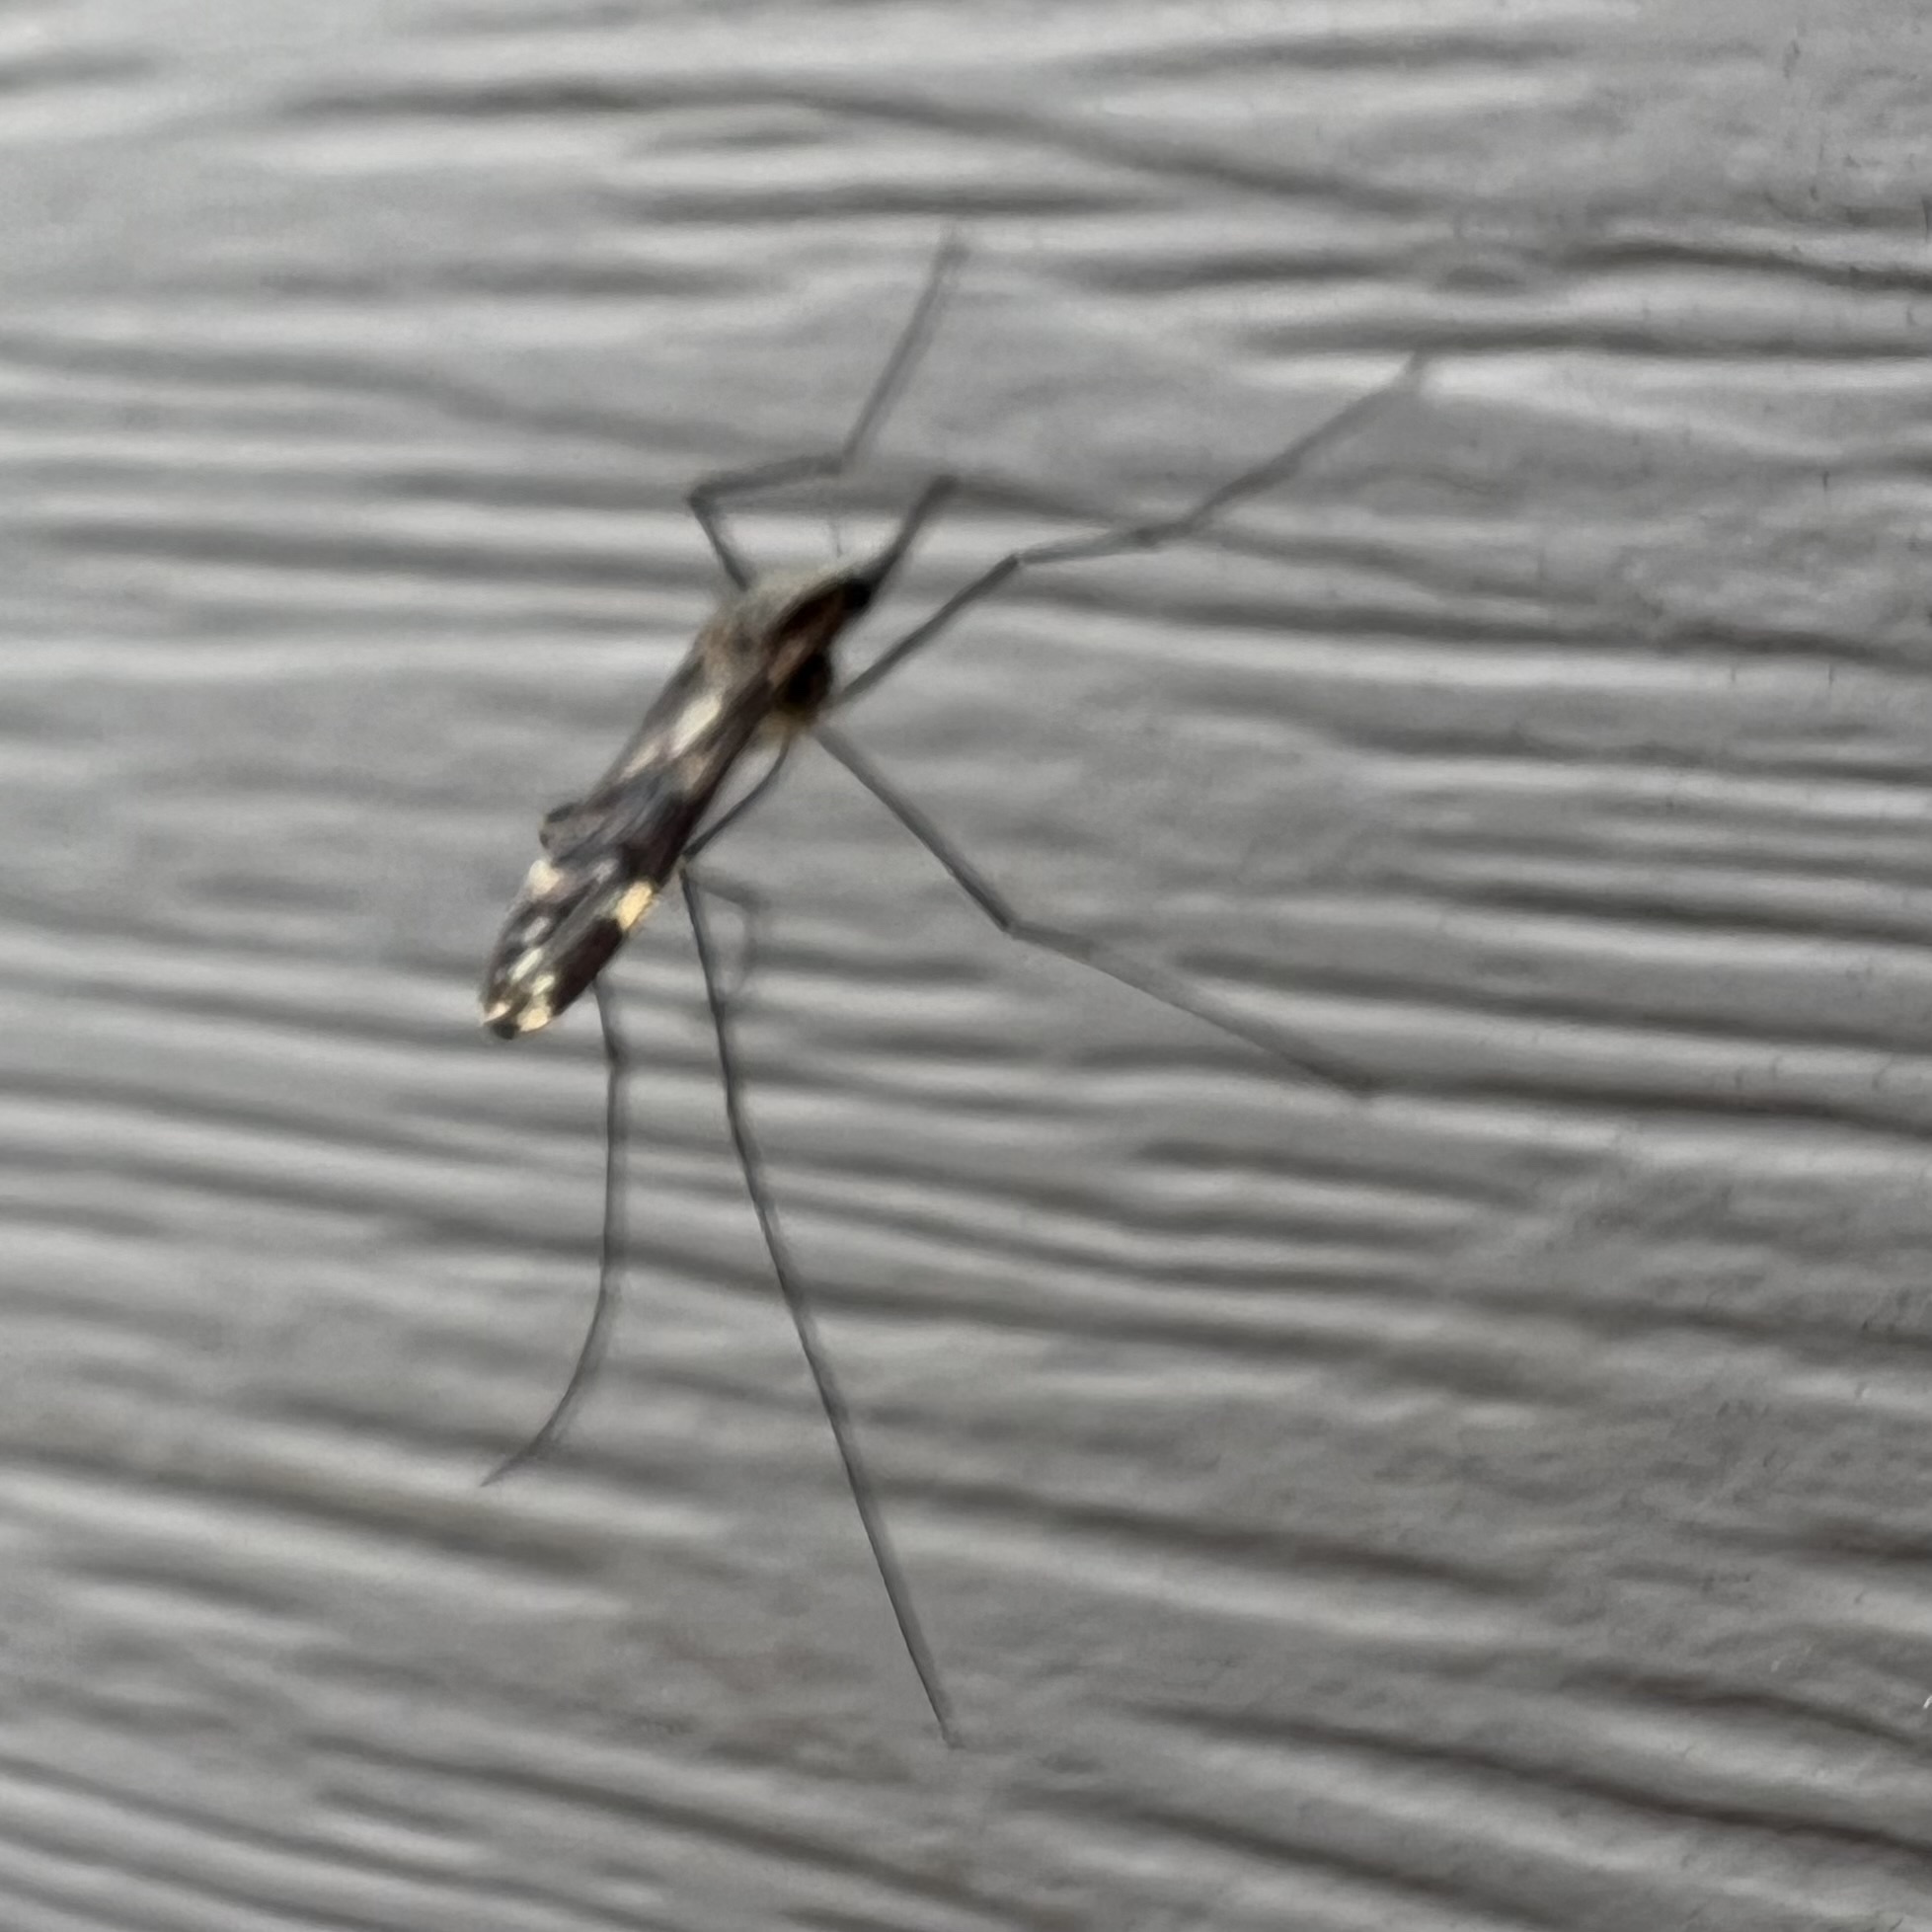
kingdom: Animalia
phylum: Arthropoda
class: Insecta
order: Diptera
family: Culicidae
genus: Anopheles
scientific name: Anopheles punctipennis
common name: Woodland malaria mosquito
